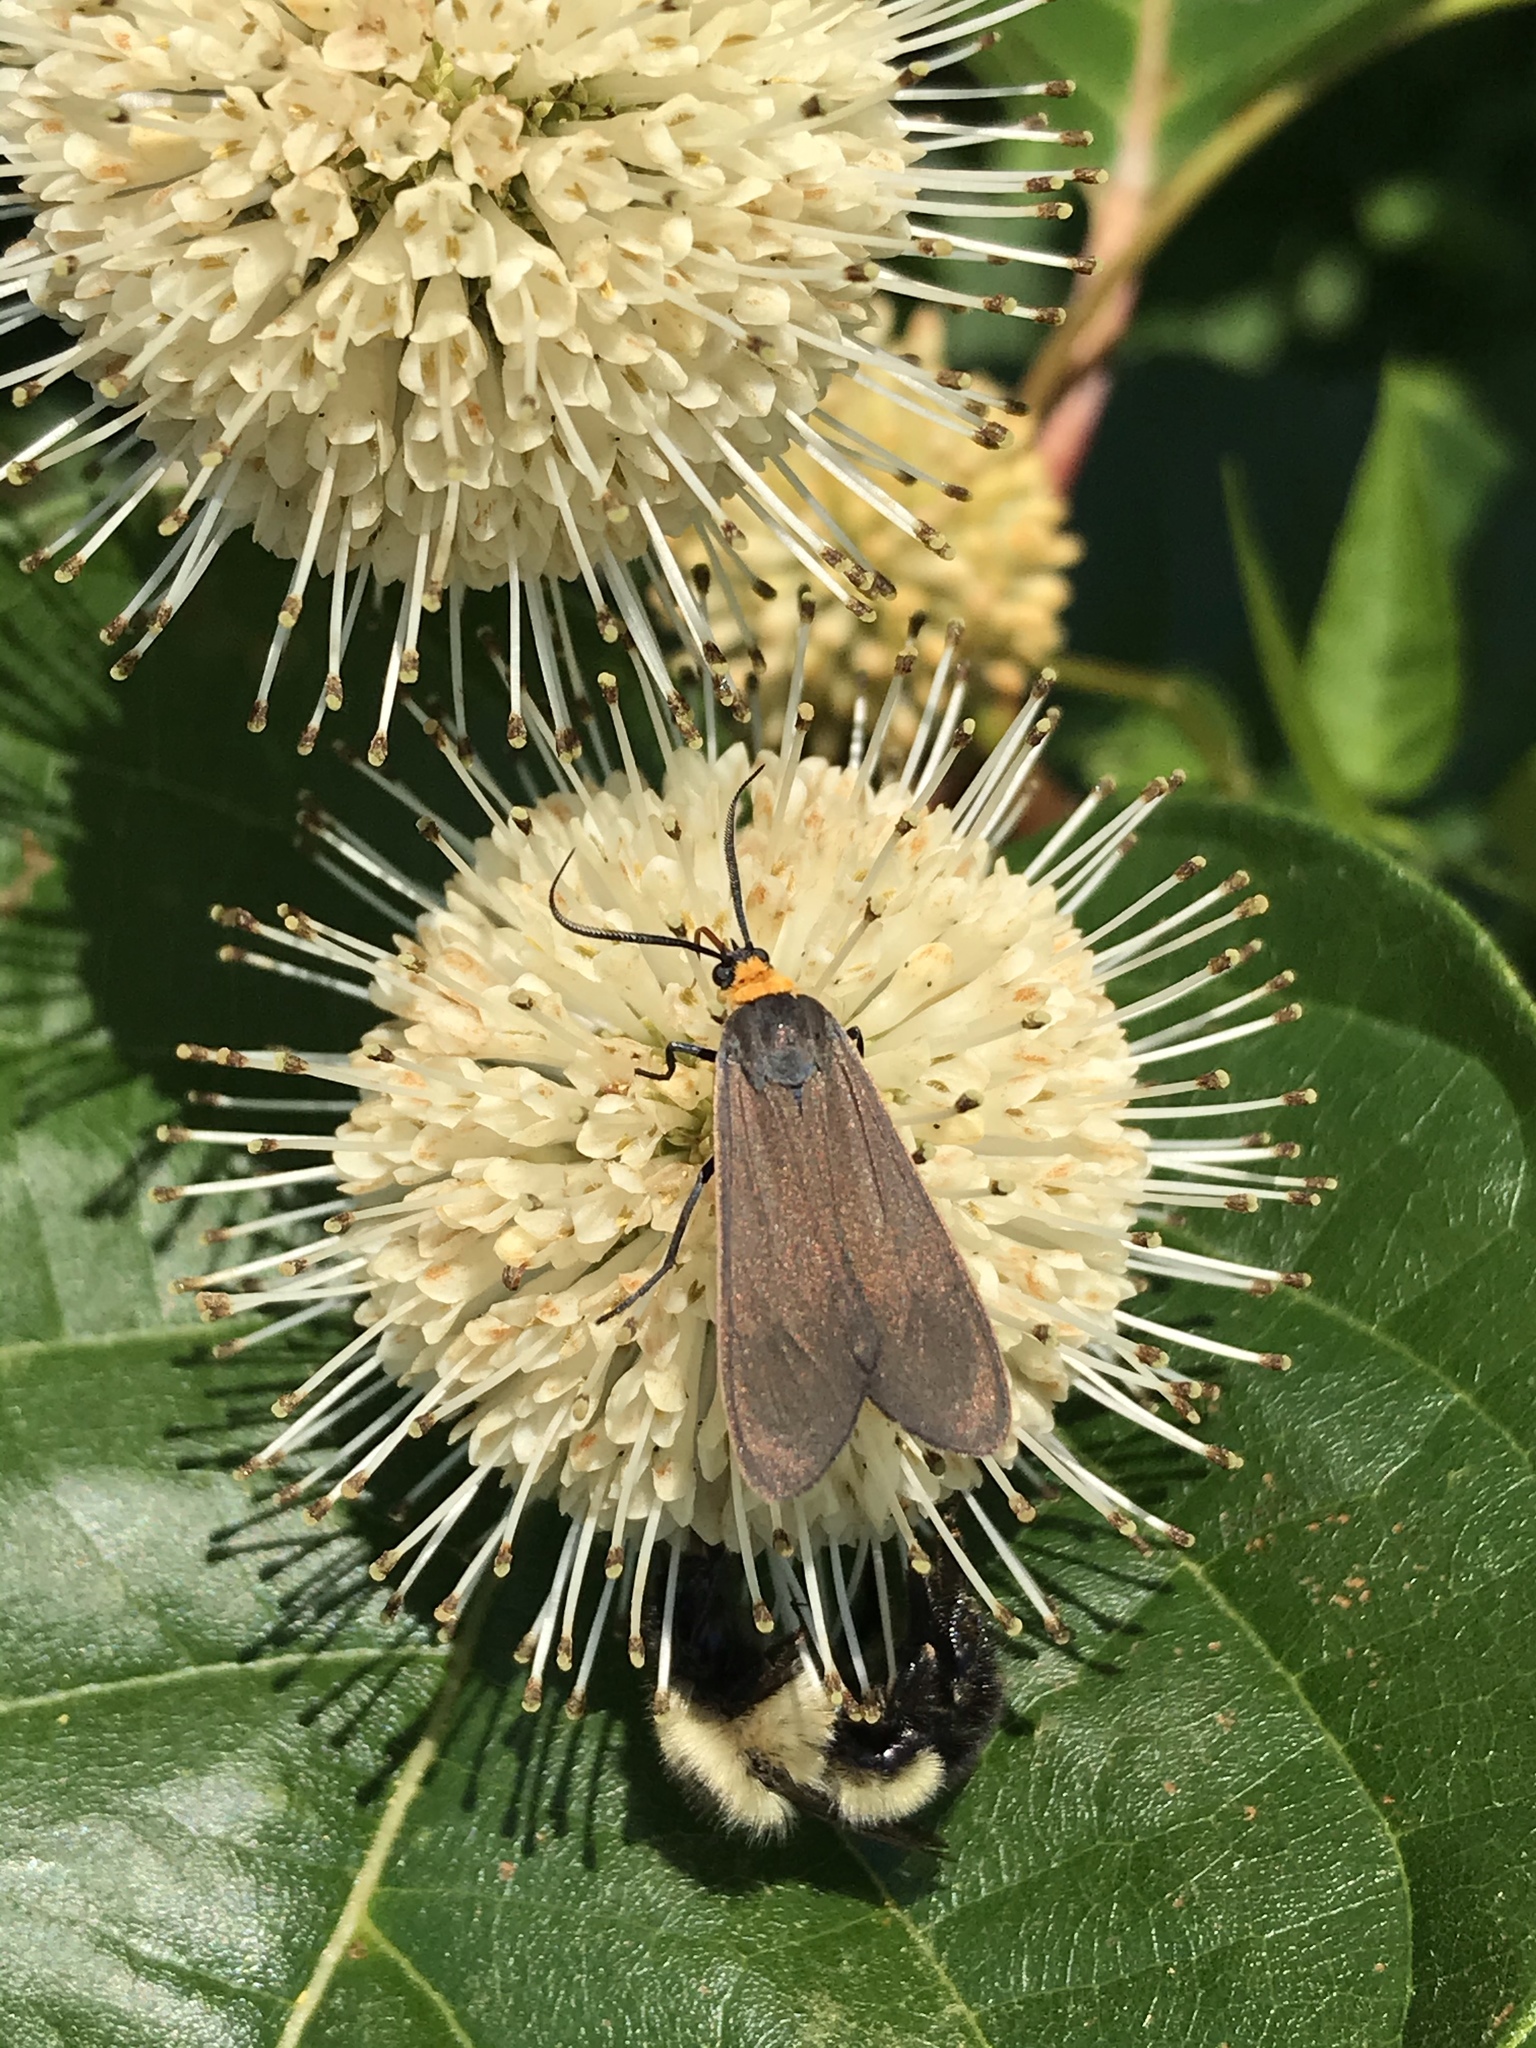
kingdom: Animalia
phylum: Arthropoda
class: Insecta
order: Lepidoptera
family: Erebidae
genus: Cisseps
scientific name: Cisseps fulvicollis
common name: Yellow-collared scape moth
